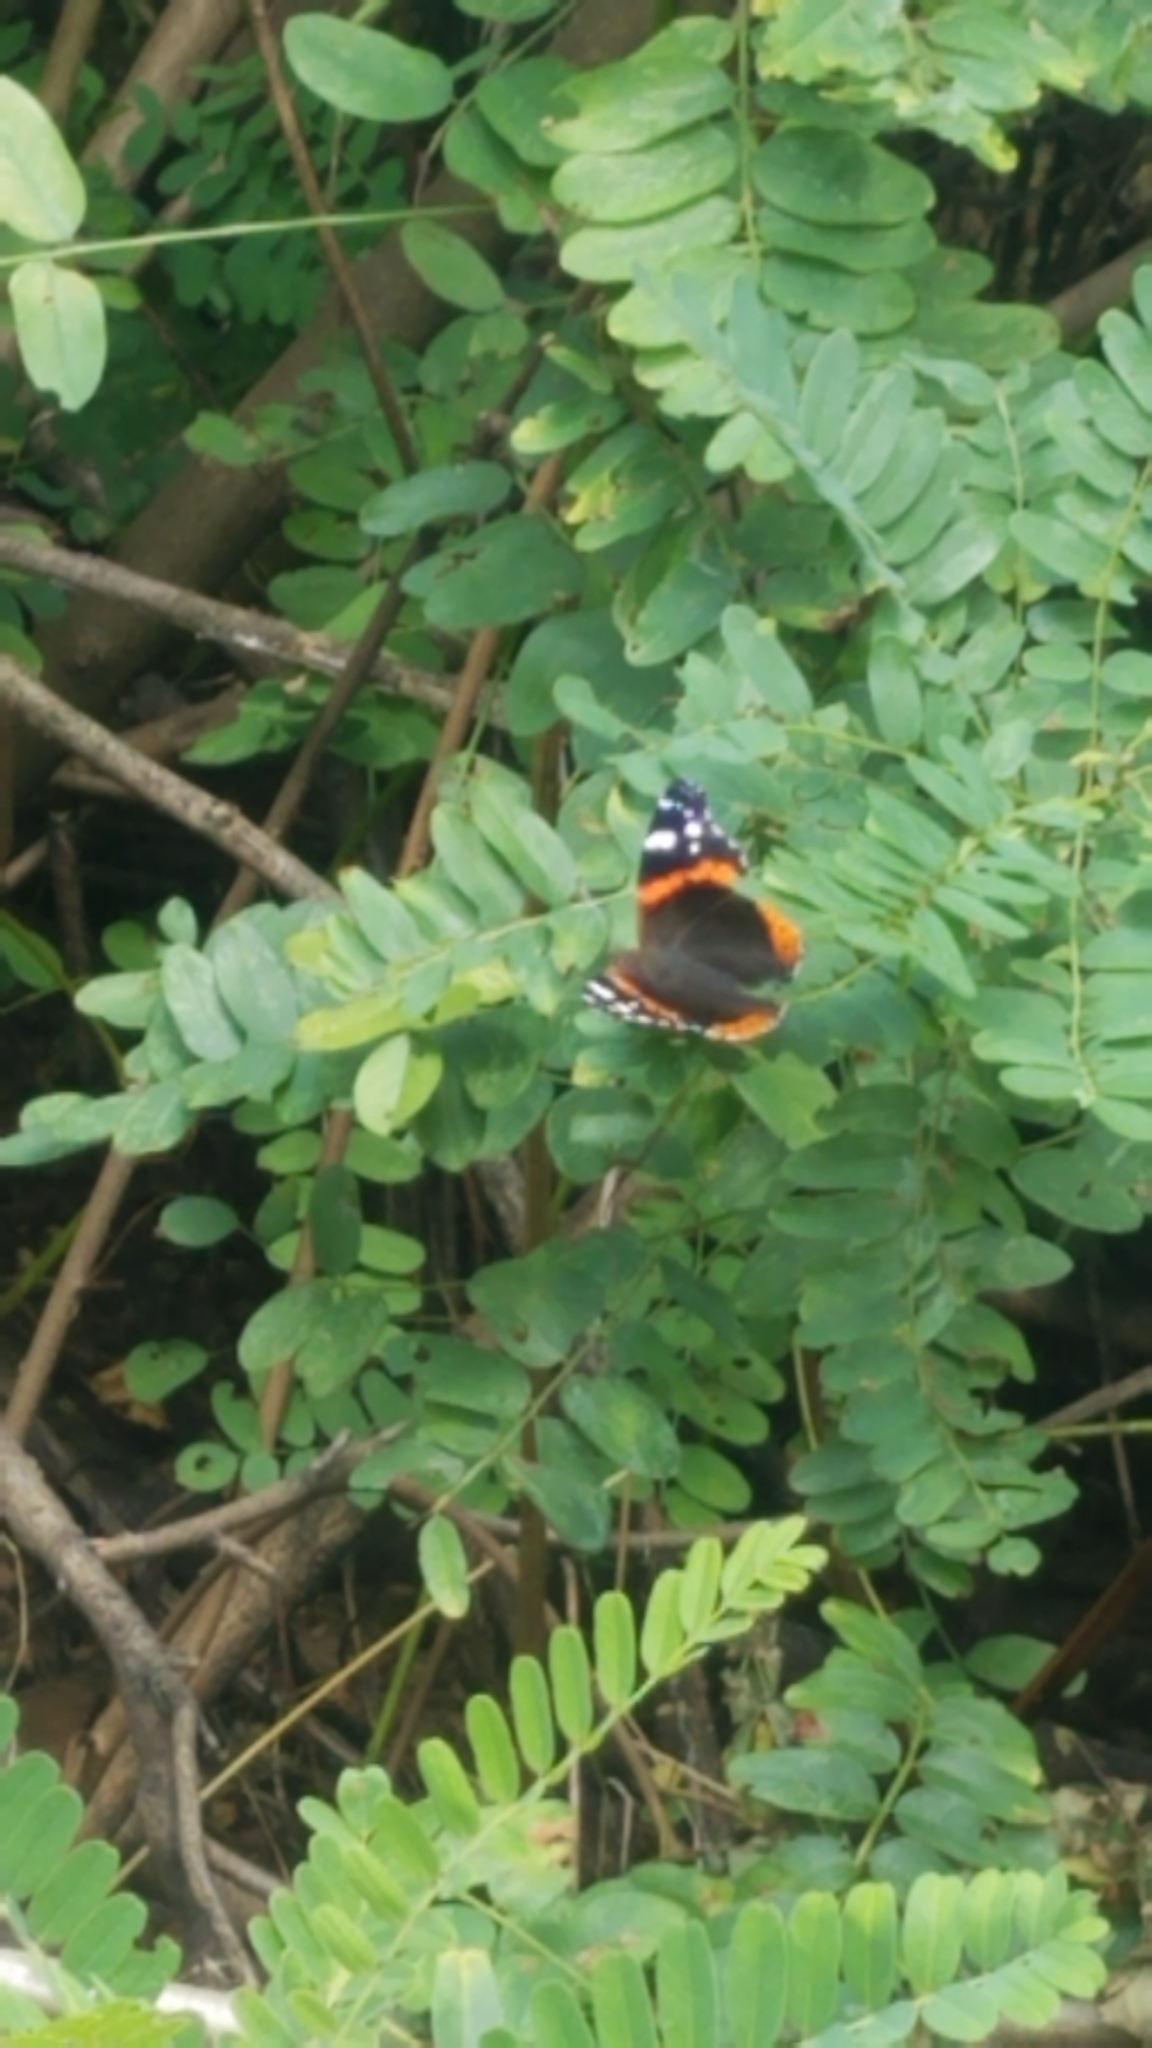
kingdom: Animalia
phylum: Arthropoda
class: Insecta
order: Lepidoptera
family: Nymphalidae
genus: Vanessa
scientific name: Vanessa atalanta
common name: Red admiral
